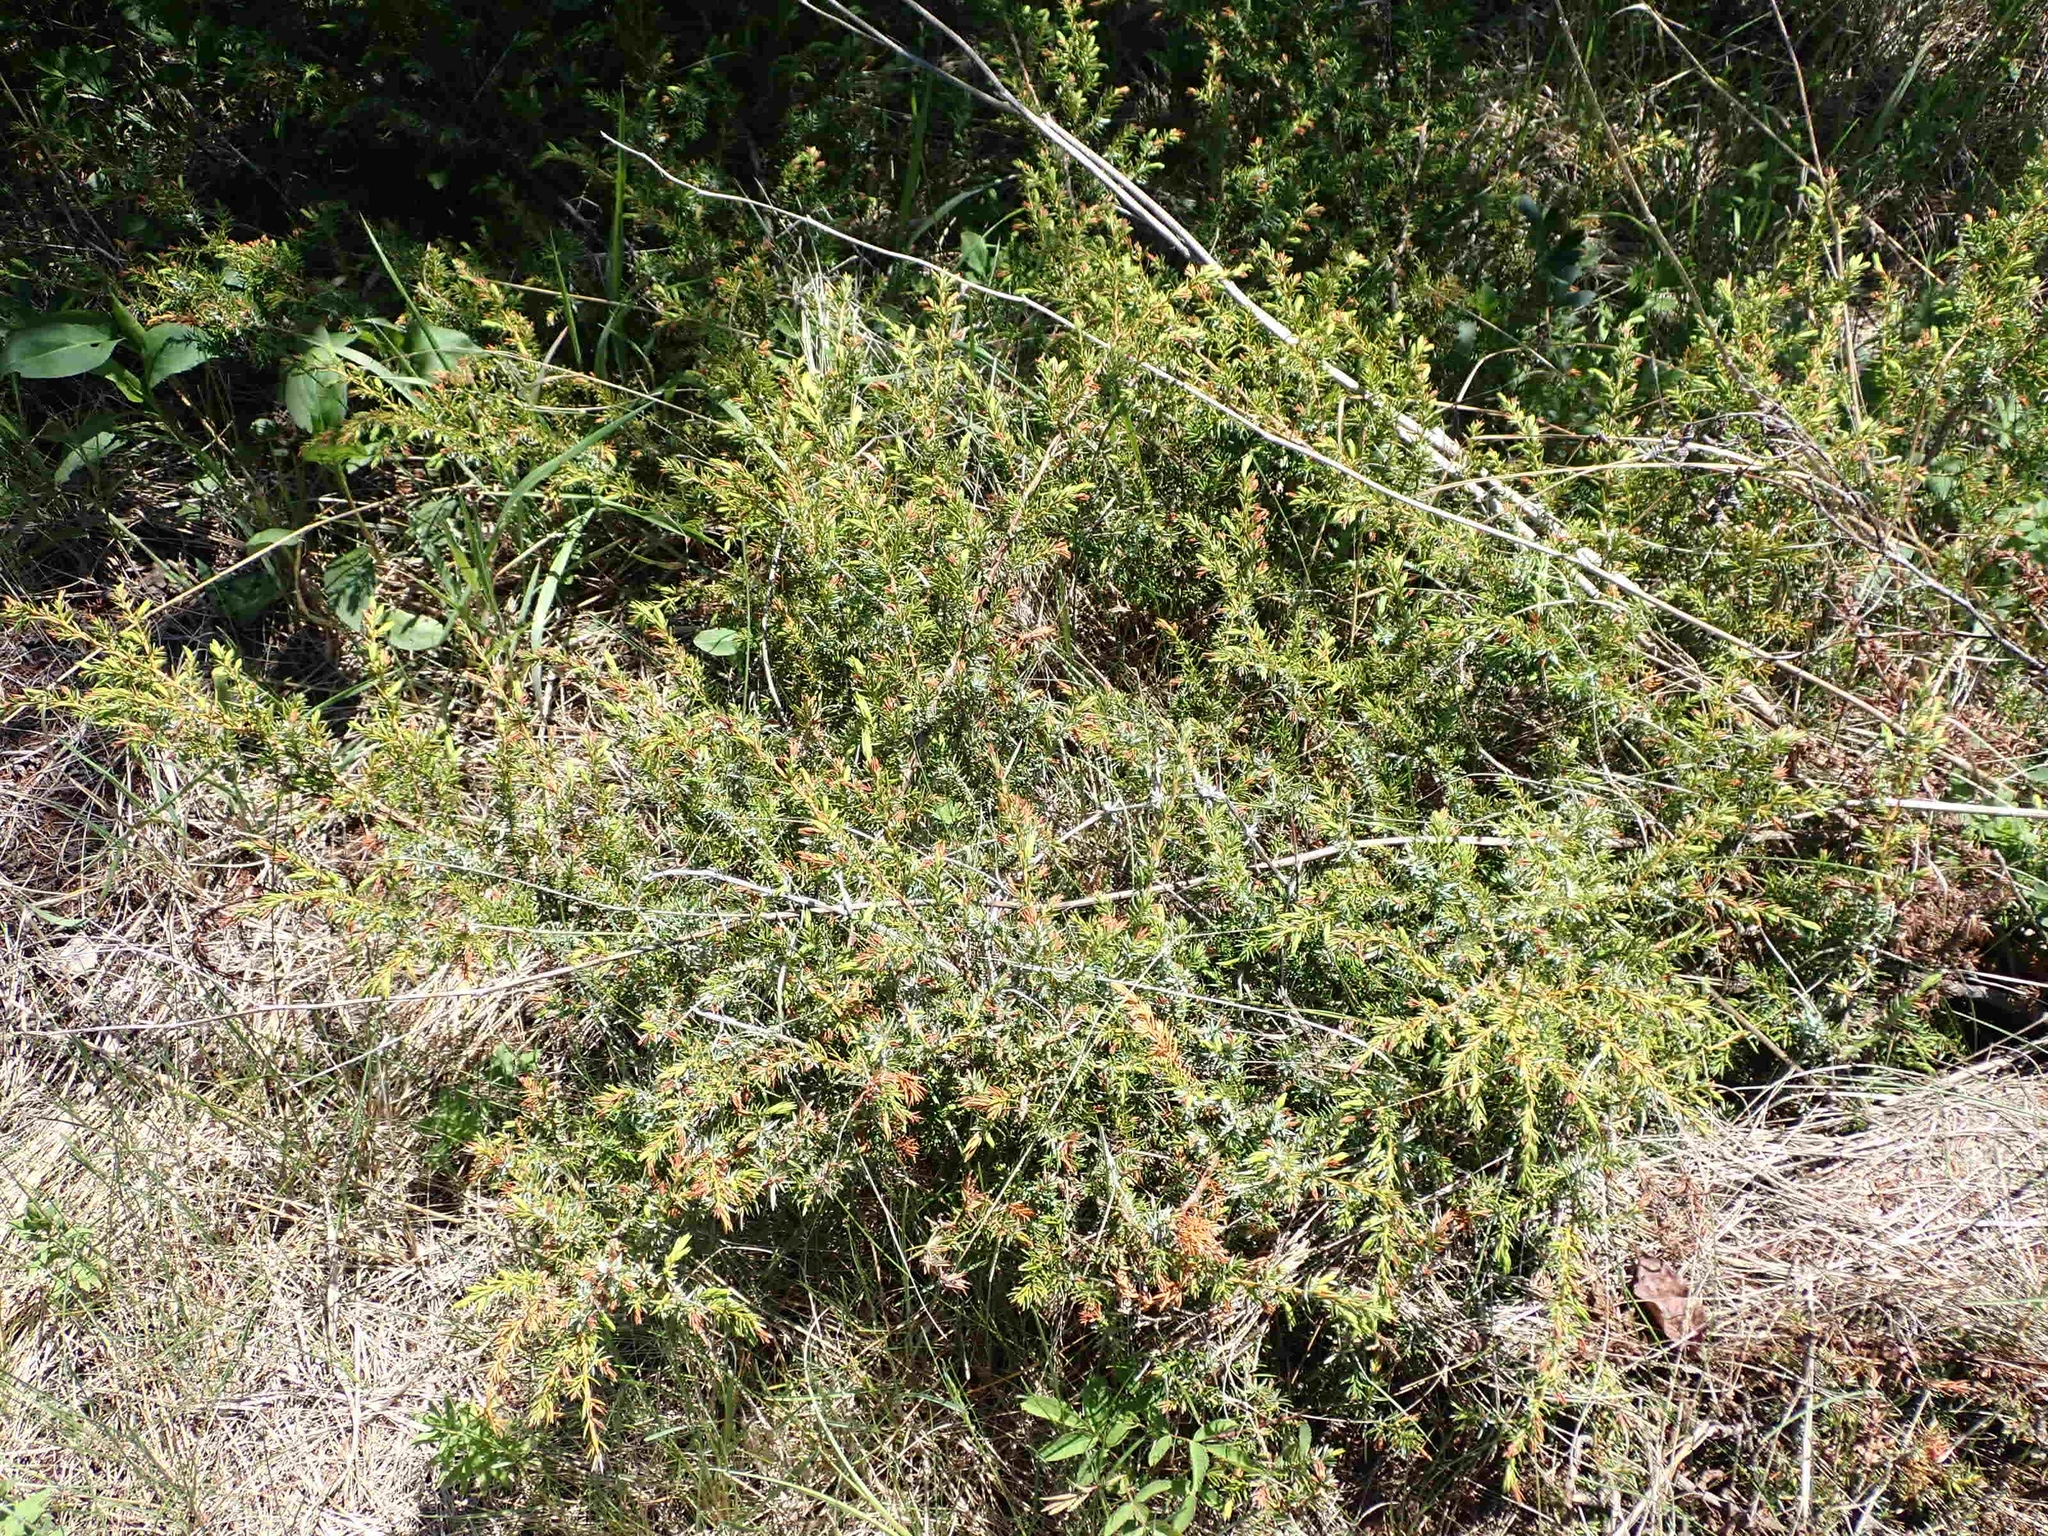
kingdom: Plantae
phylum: Tracheophyta
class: Pinopsida
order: Pinales
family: Cupressaceae
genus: Juniperus
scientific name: Juniperus communis
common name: Common juniper
